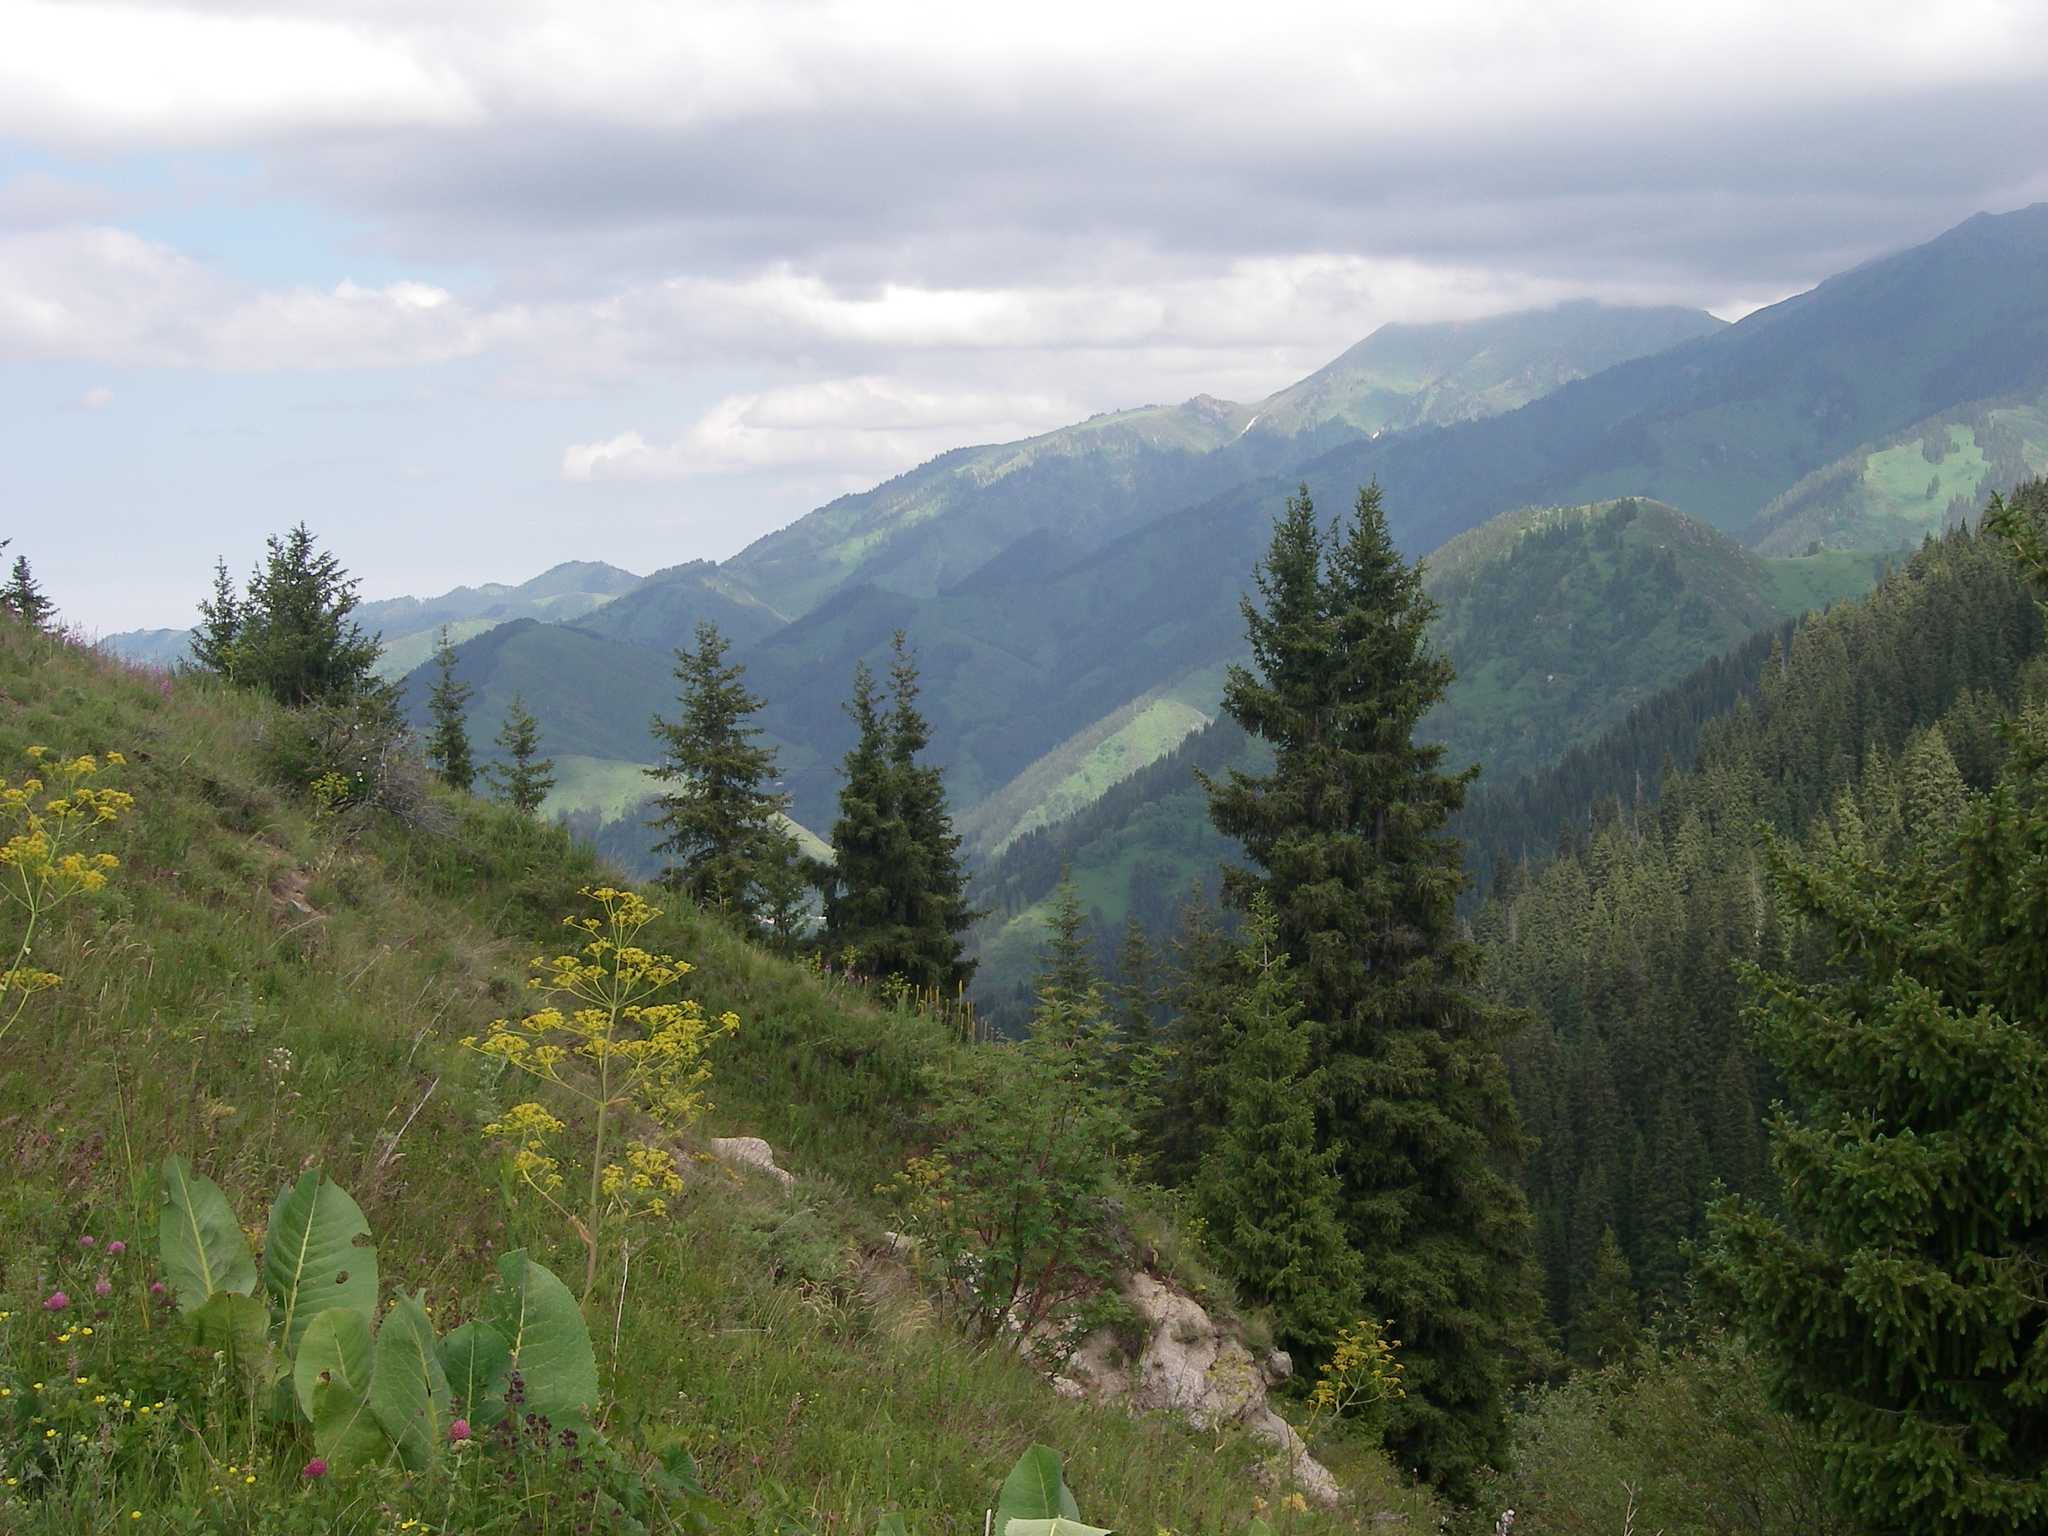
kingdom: Plantae
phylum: Tracheophyta
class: Magnoliopsida
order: Asterales
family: Asteraceae
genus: Ligularia
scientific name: Ligularia heterophylla
